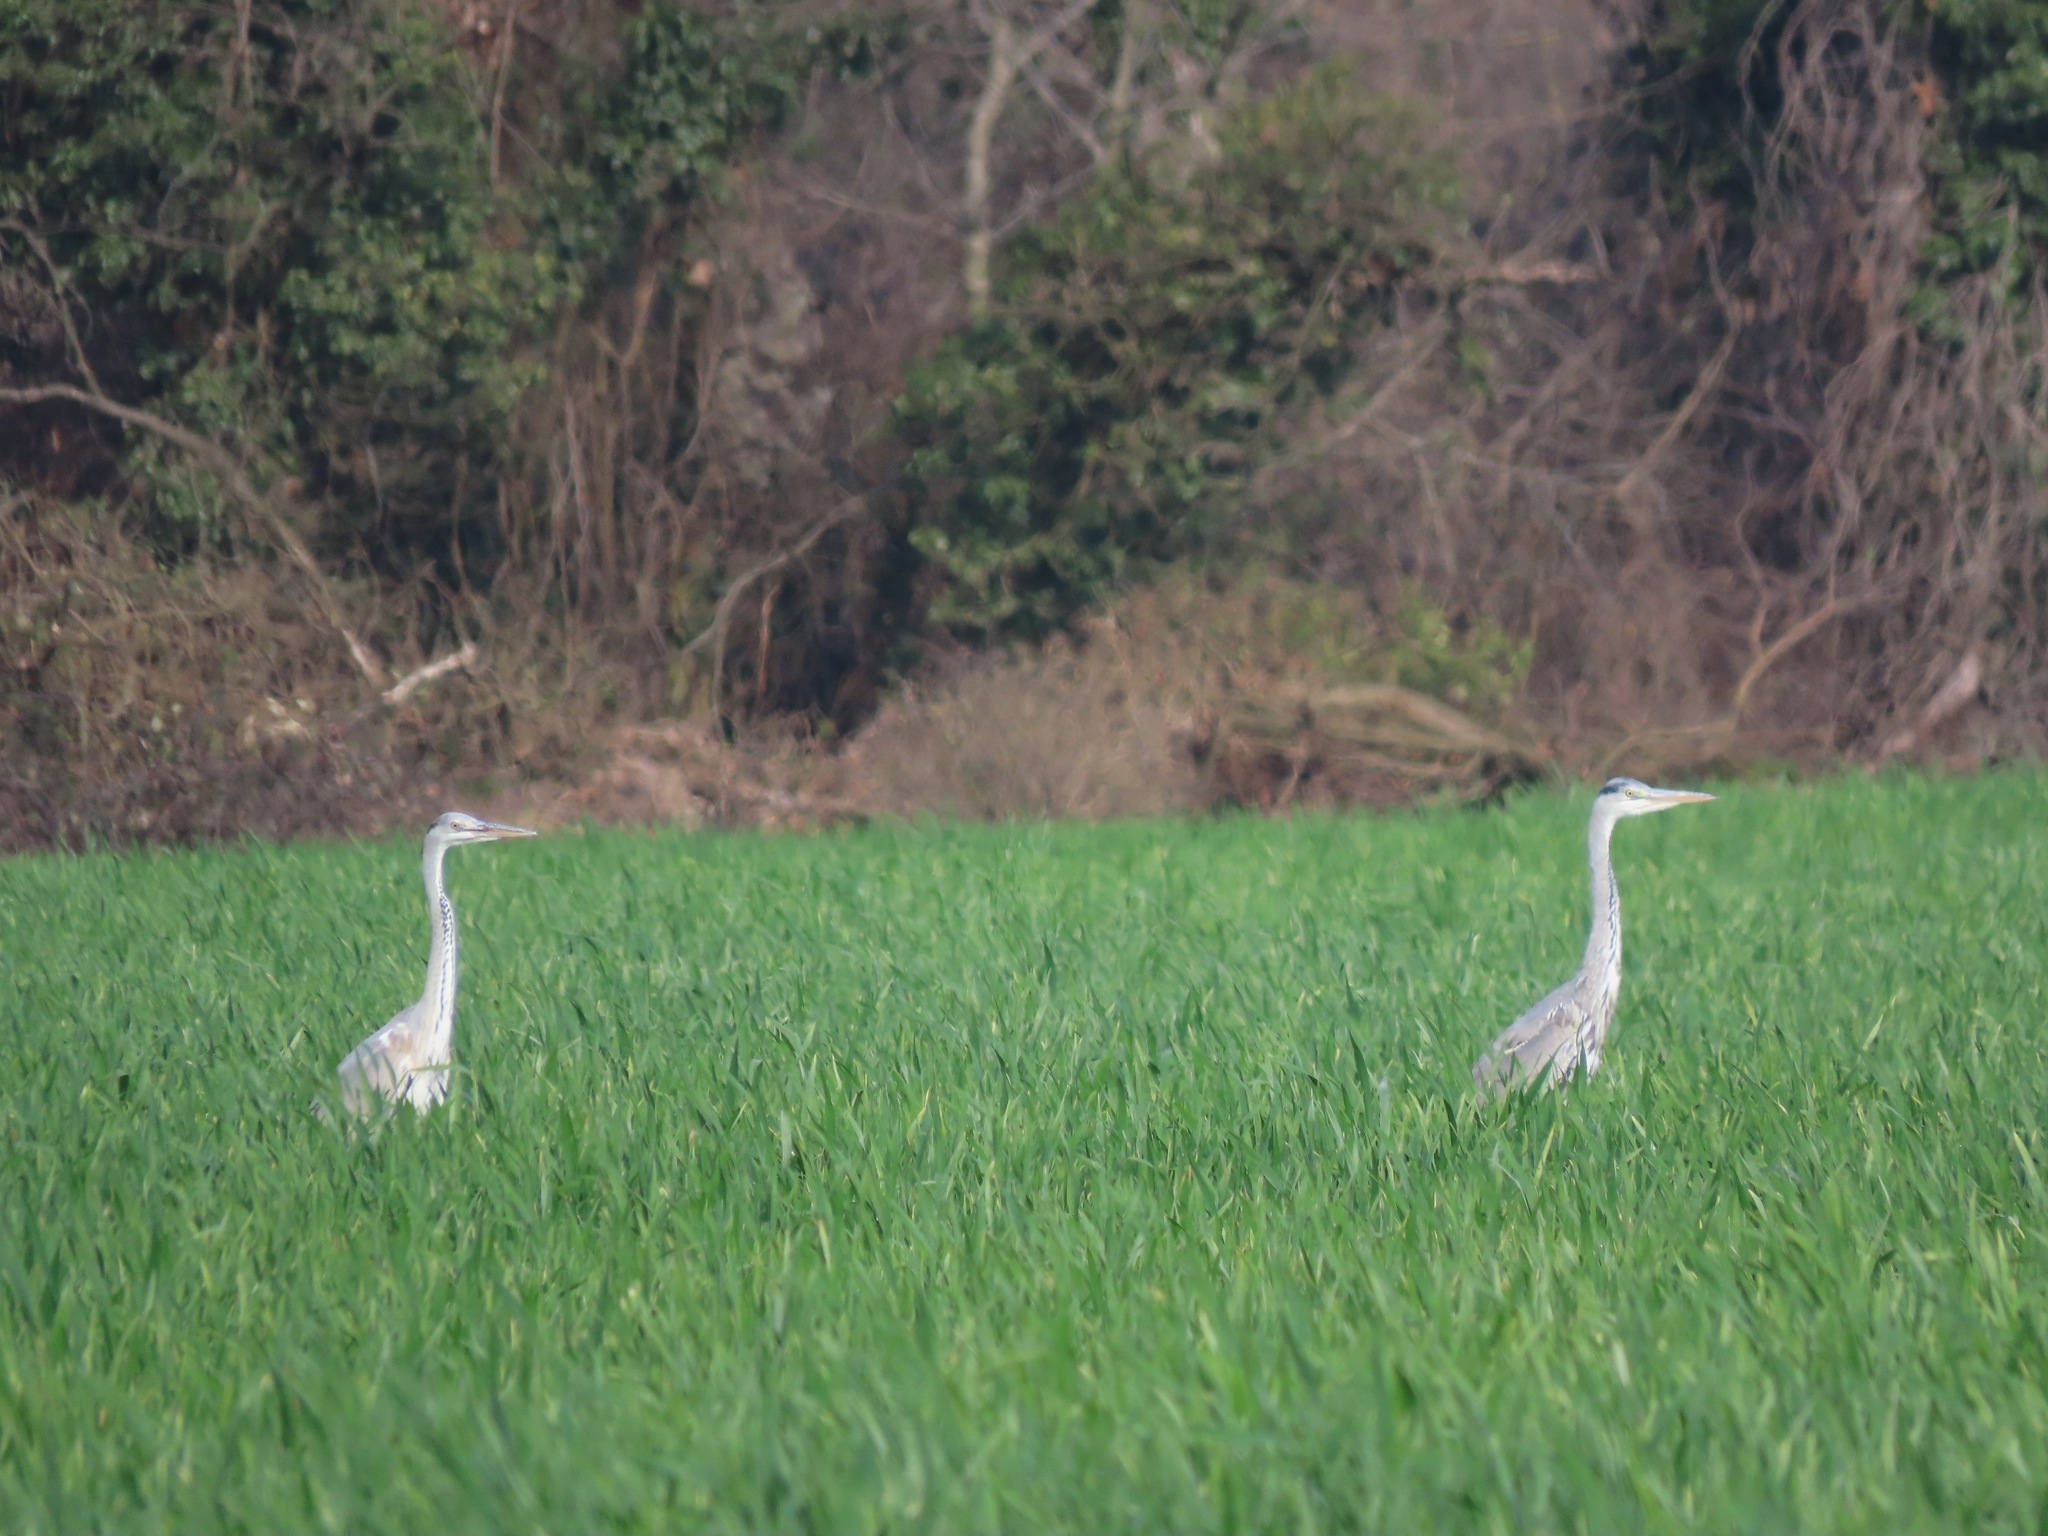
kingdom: Animalia
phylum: Chordata
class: Aves
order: Pelecaniformes
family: Ardeidae
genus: Ardea
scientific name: Ardea cinerea
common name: Grey heron
